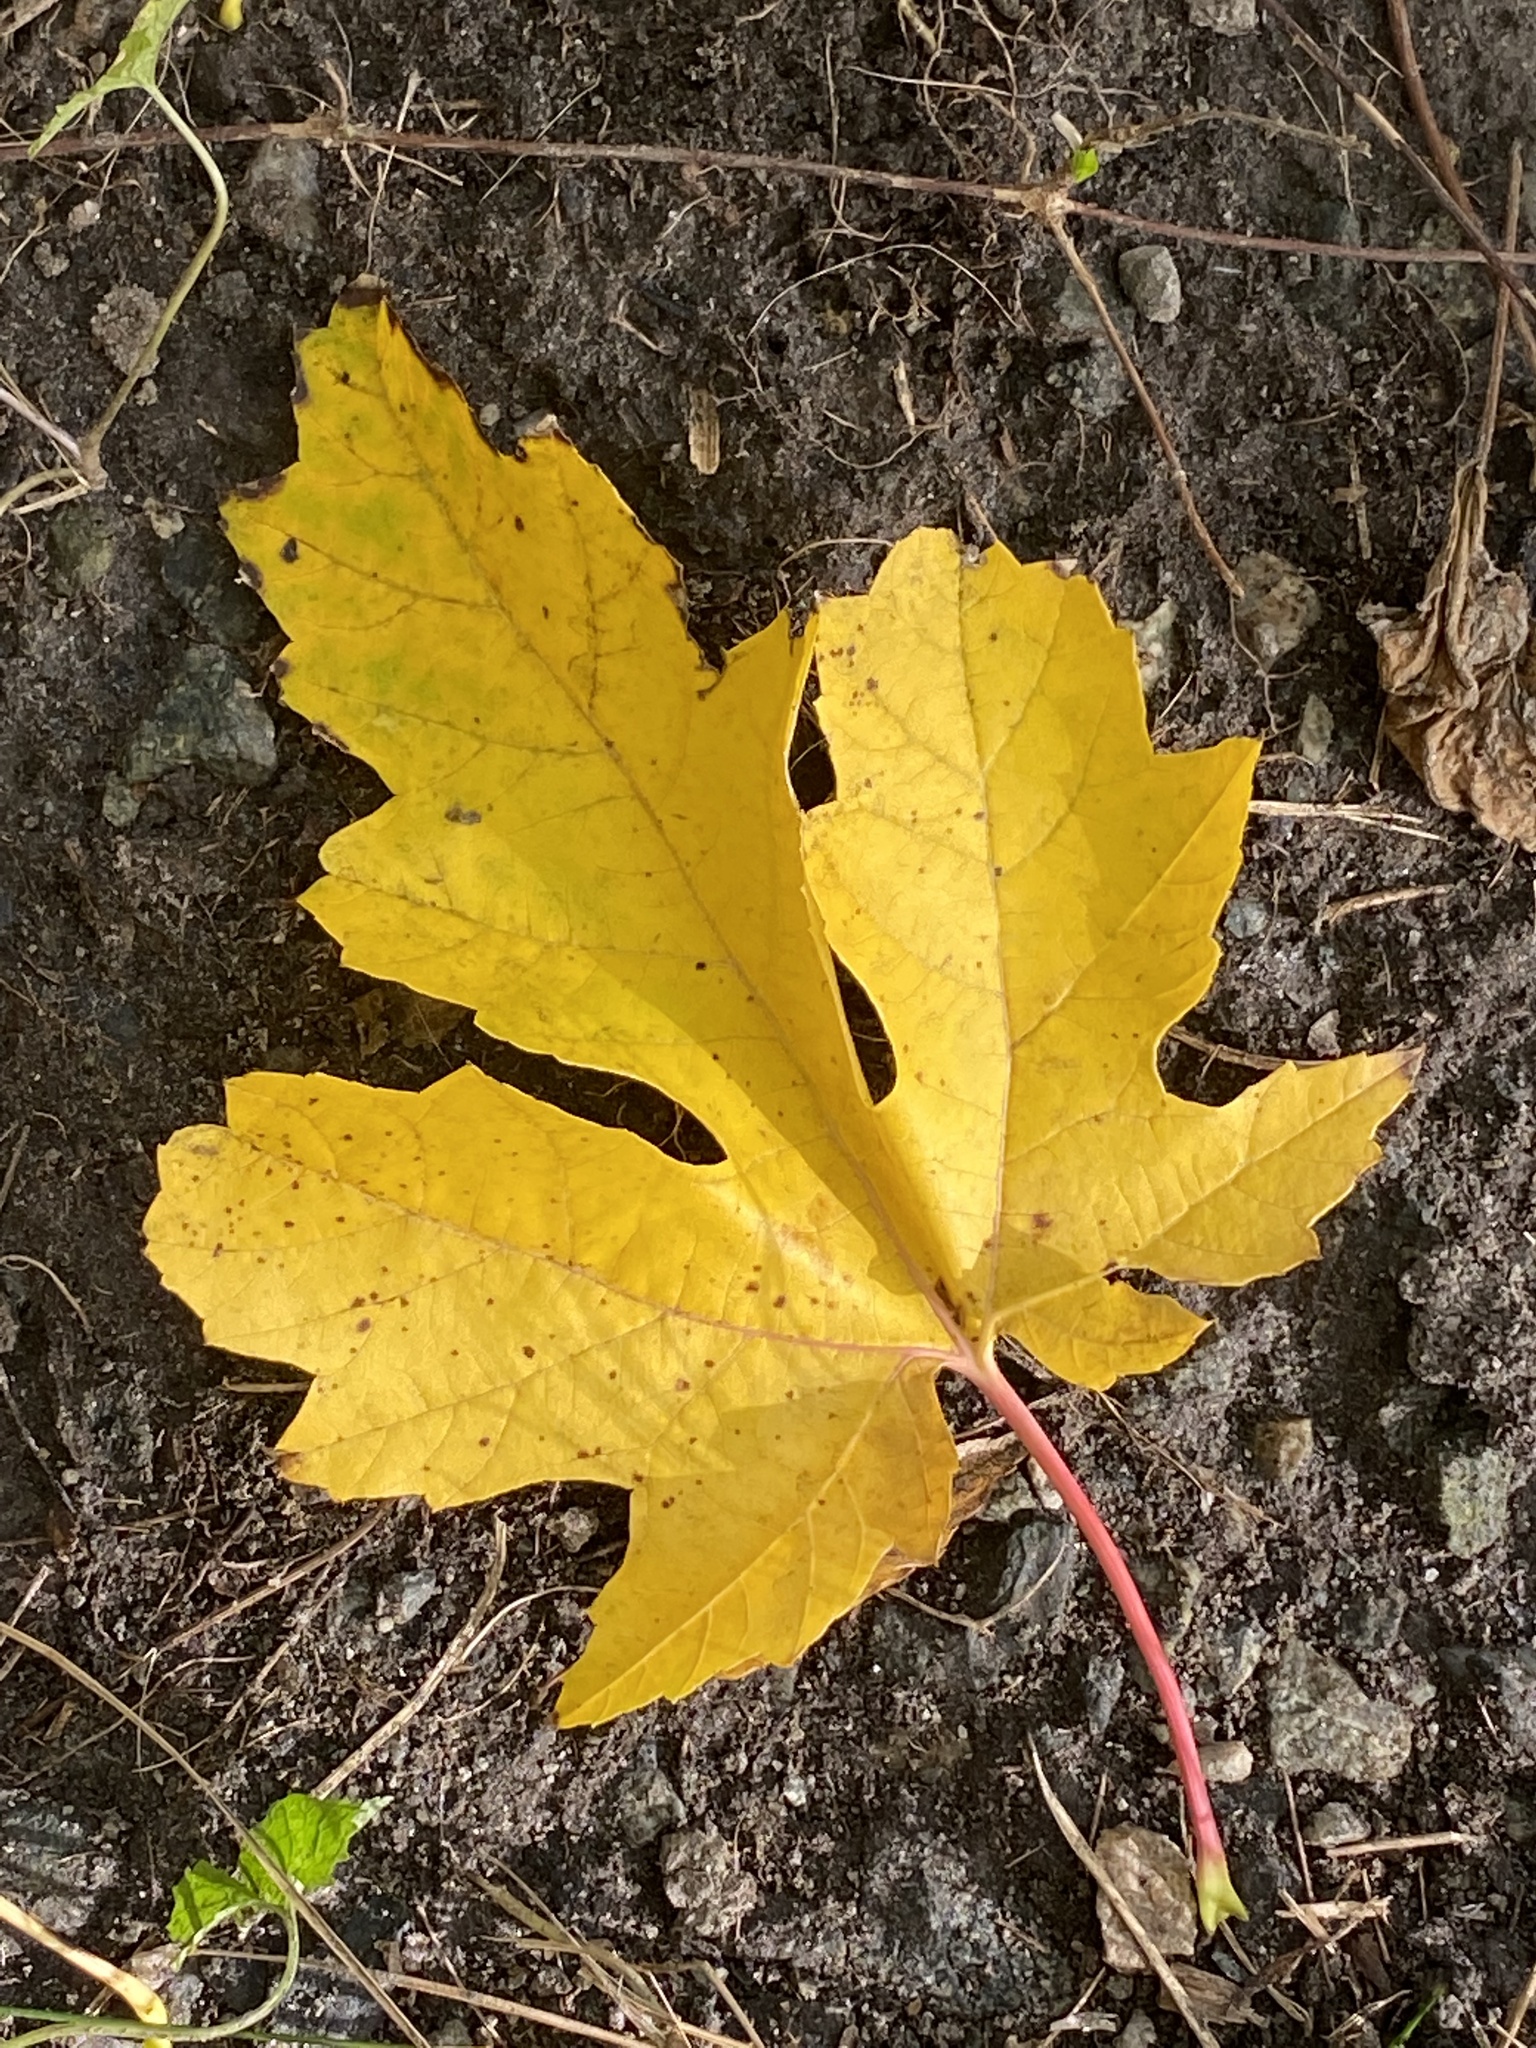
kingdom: Plantae
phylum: Tracheophyta
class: Magnoliopsida
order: Sapindales
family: Sapindaceae
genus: Acer
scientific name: Acer saccharinum
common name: Silver maple
